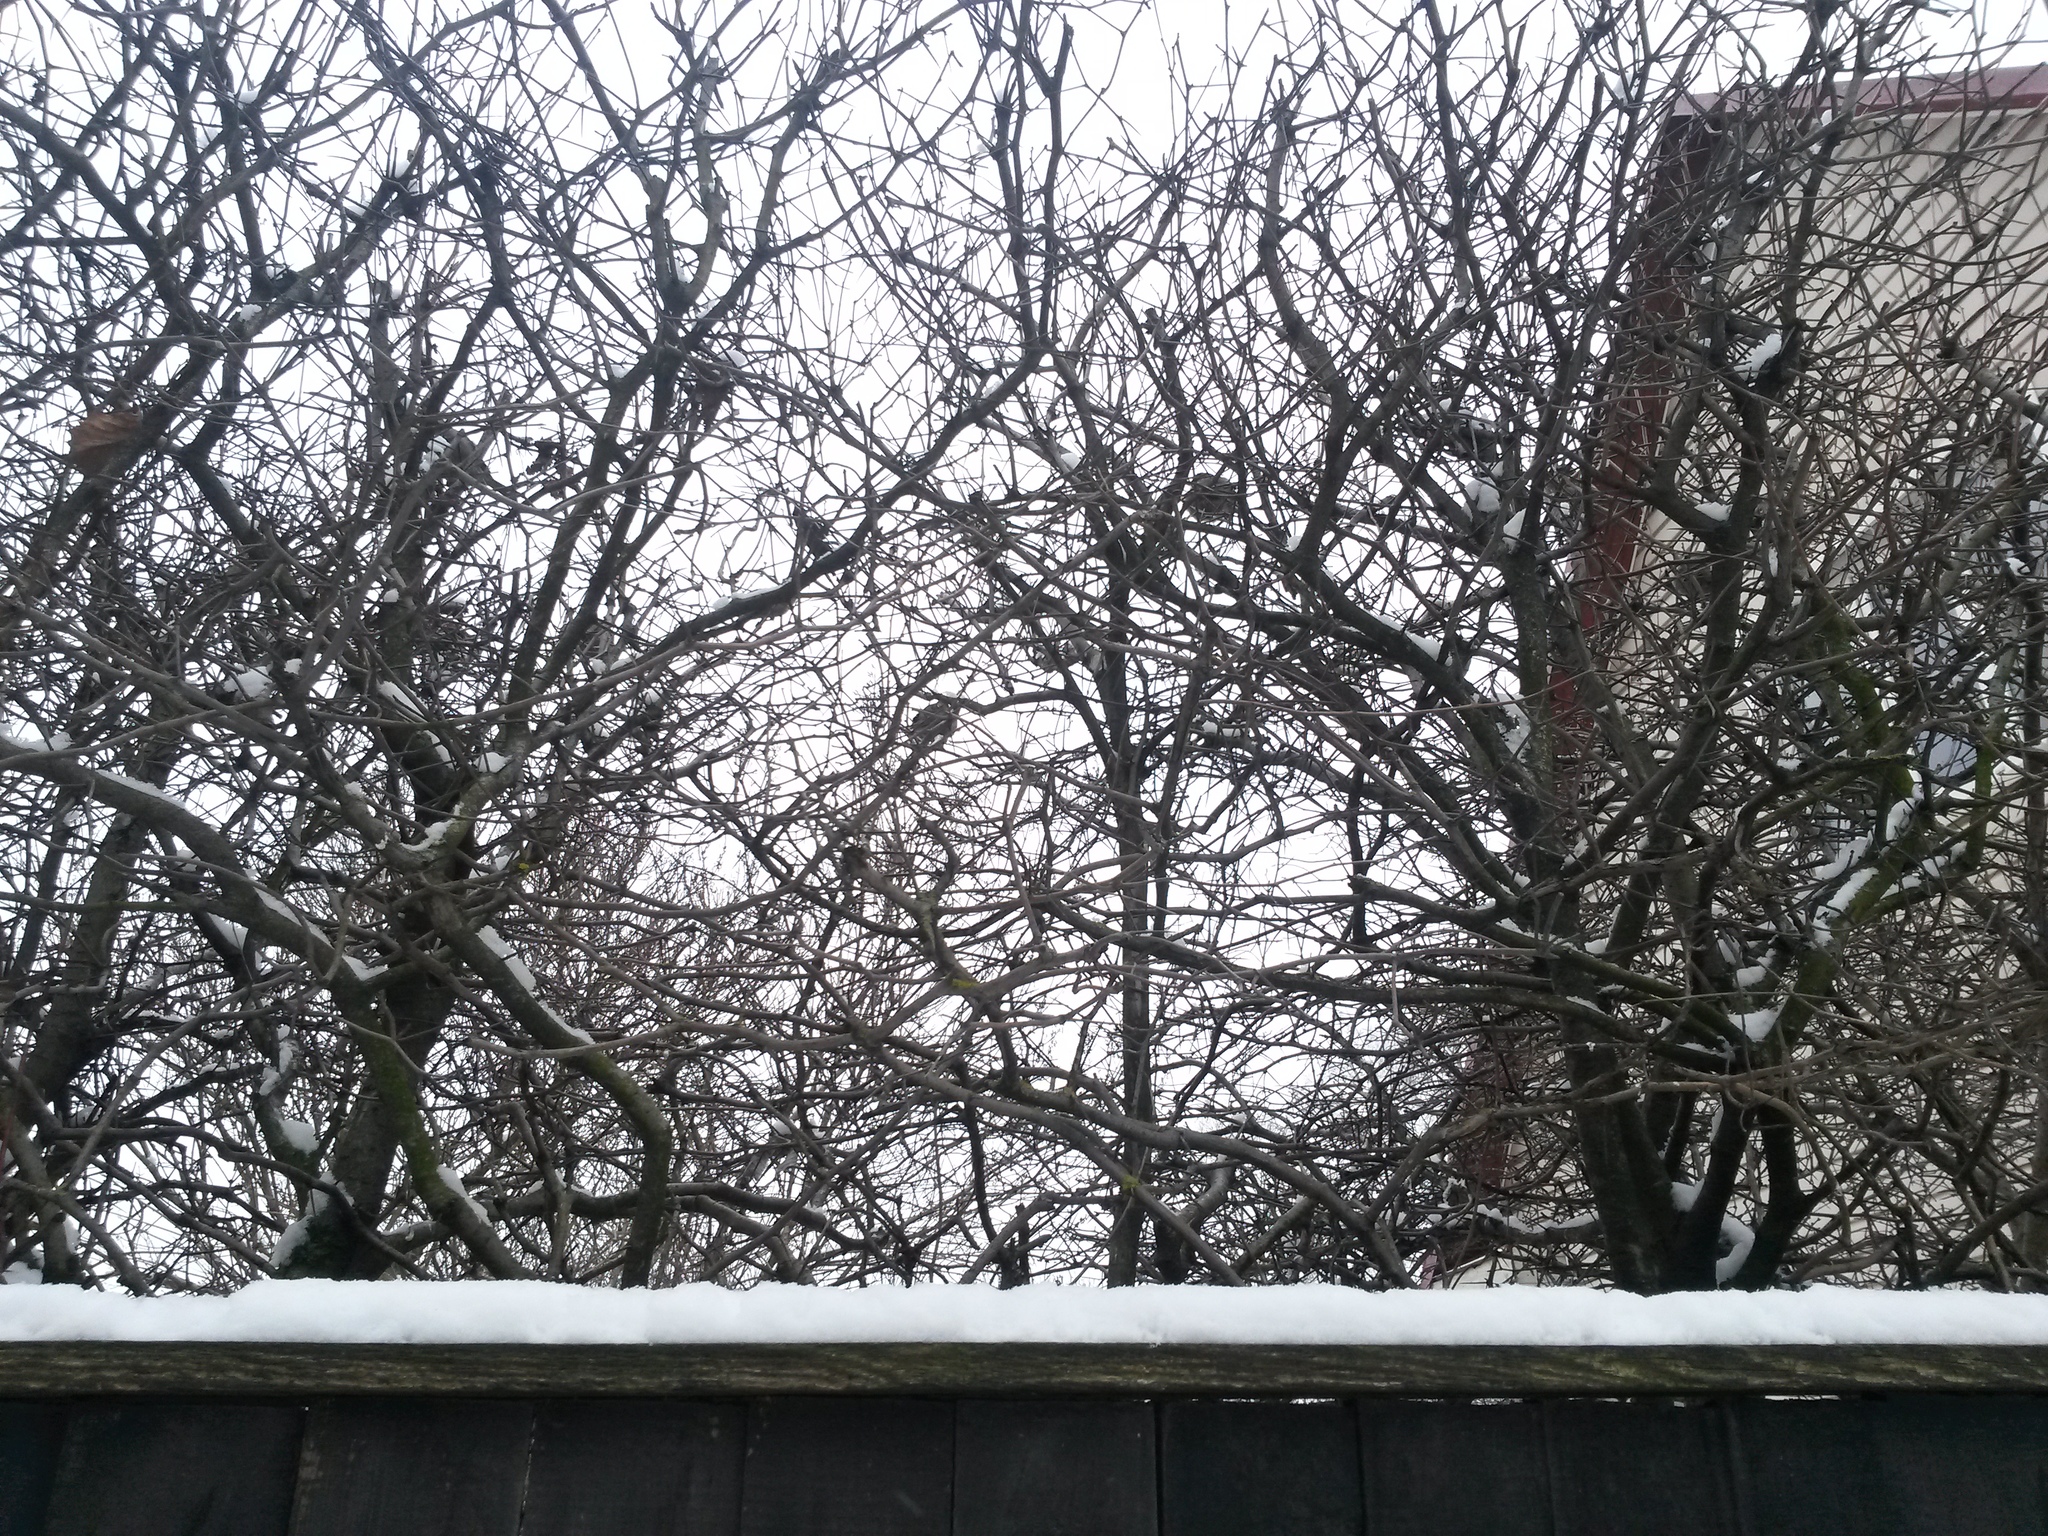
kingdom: Animalia
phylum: Chordata
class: Aves
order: Passeriformes
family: Passeridae
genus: Passer
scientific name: Passer domesticus
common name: House sparrow
